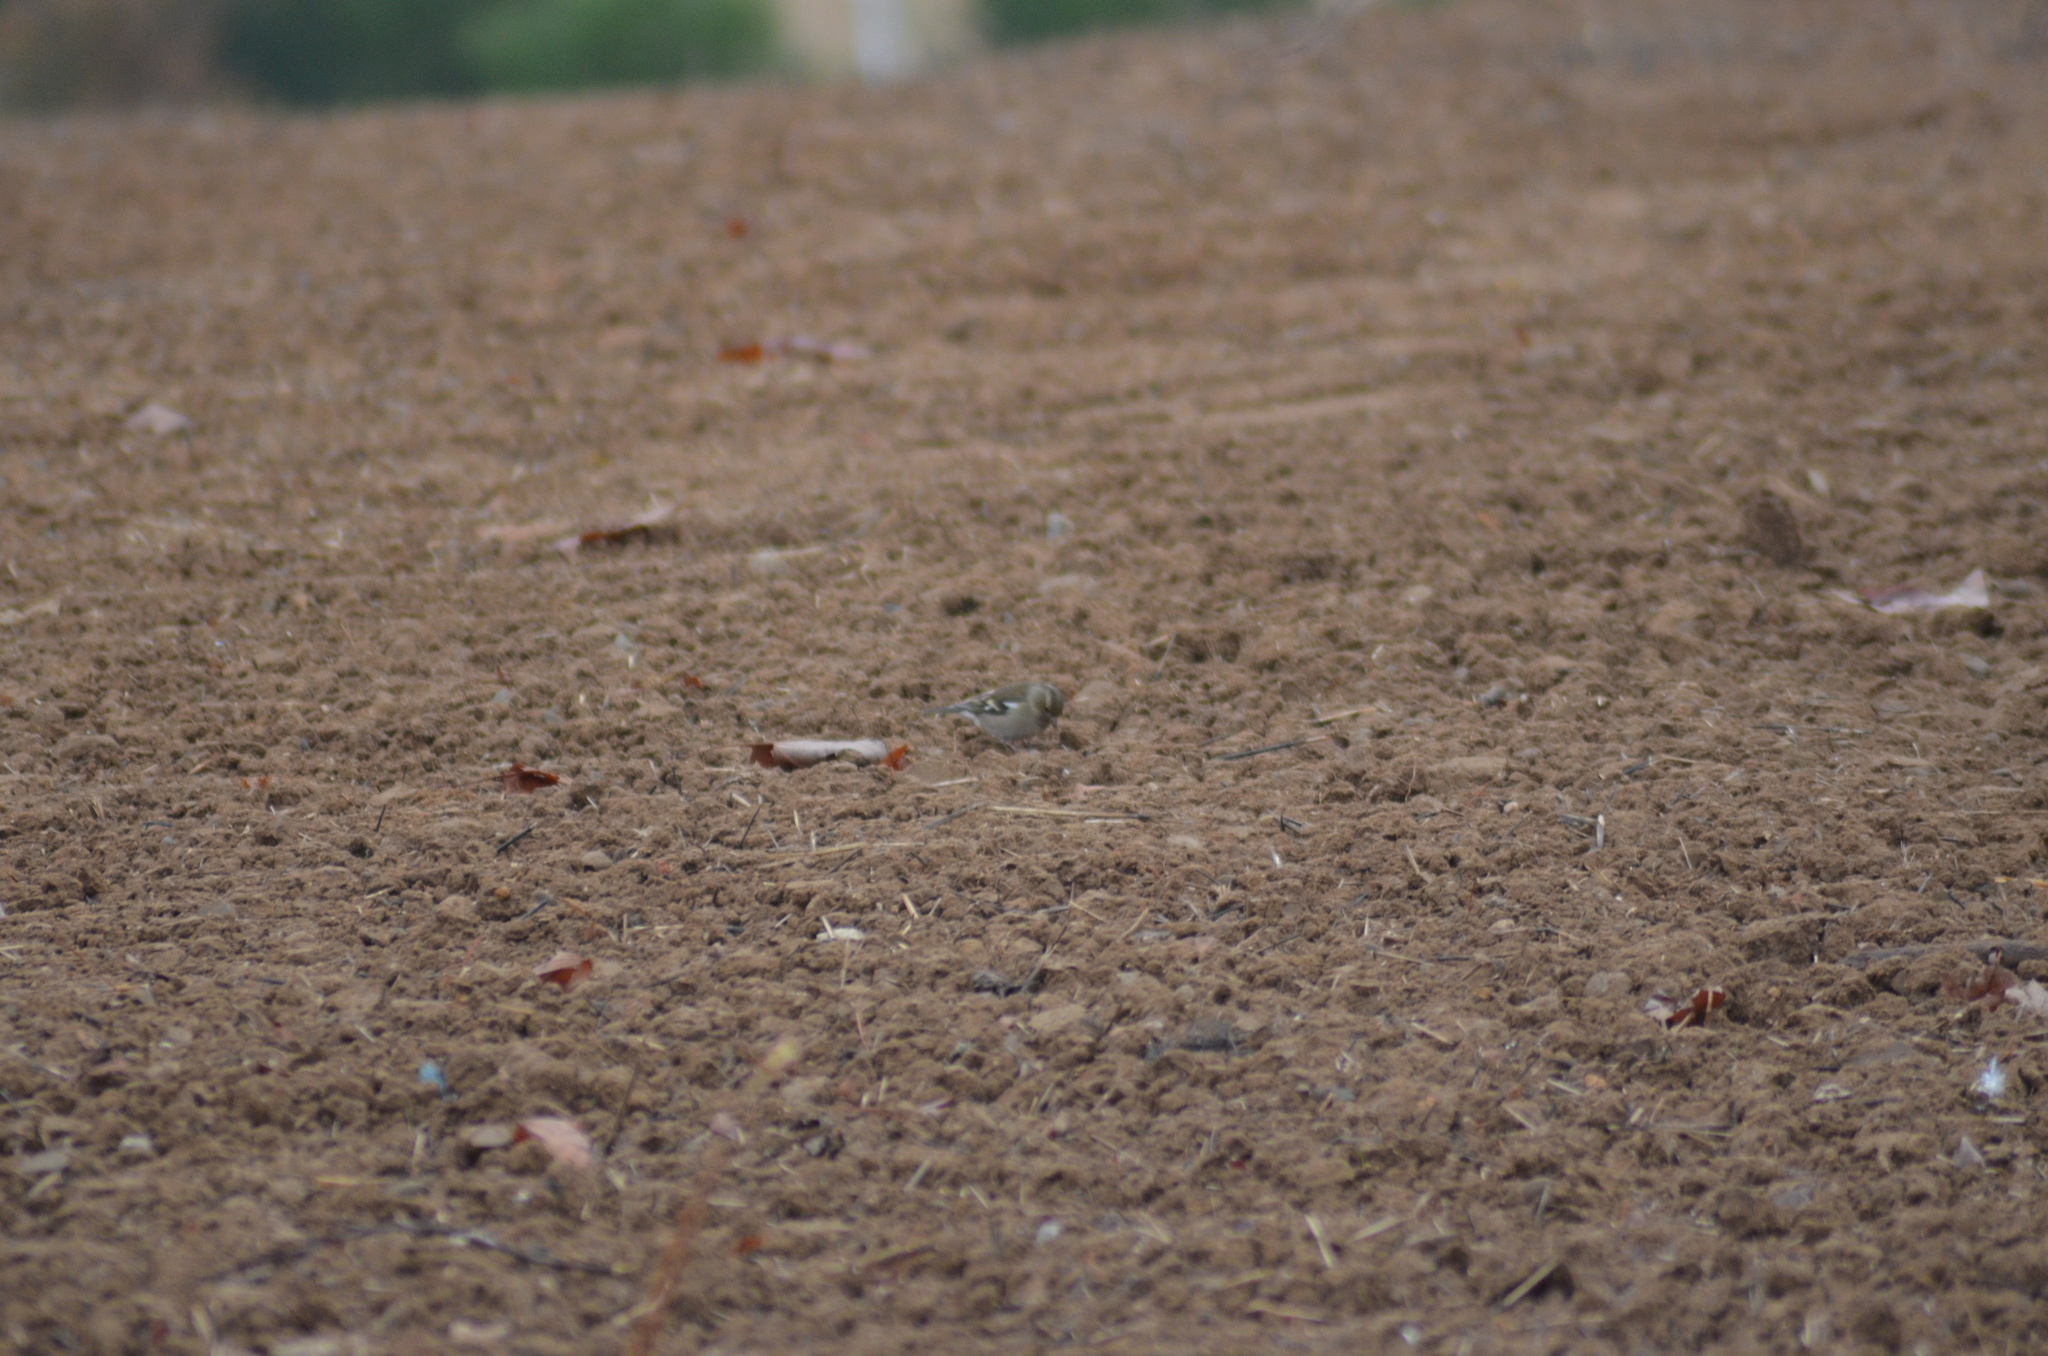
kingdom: Animalia
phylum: Chordata
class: Aves
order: Passeriformes
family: Fringillidae
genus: Fringilla
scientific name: Fringilla coelebs
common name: Common chaffinch
